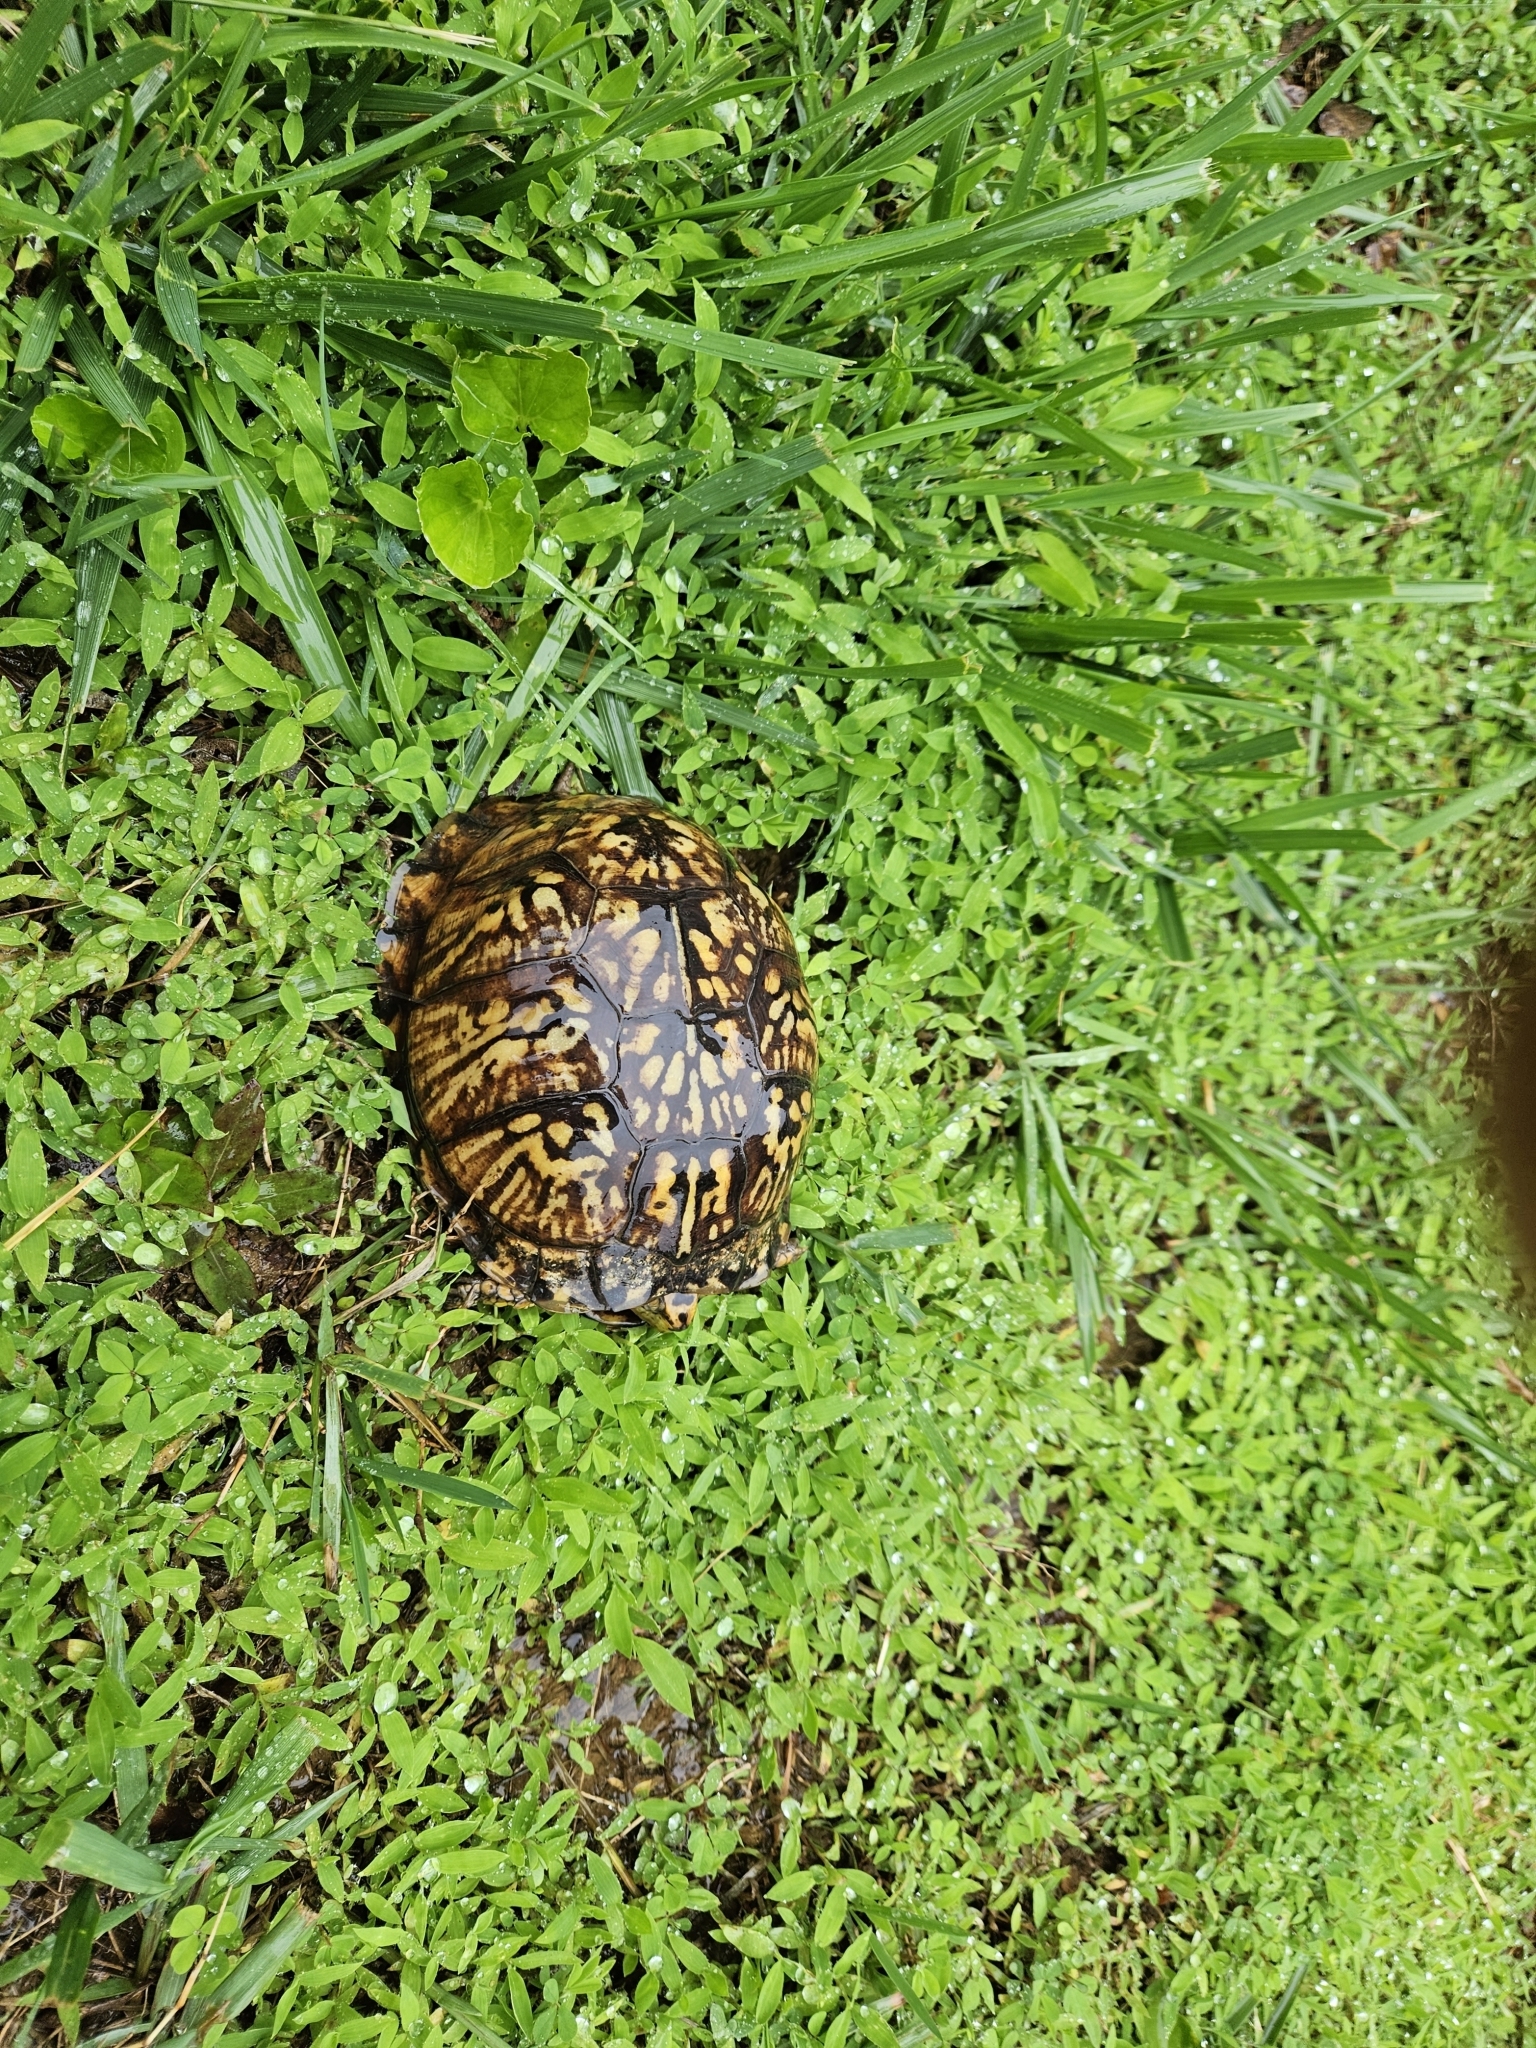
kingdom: Animalia
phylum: Chordata
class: Testudines
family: Emydidae
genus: Terrapene
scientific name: Terrapene carolina
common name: Common box turtle
